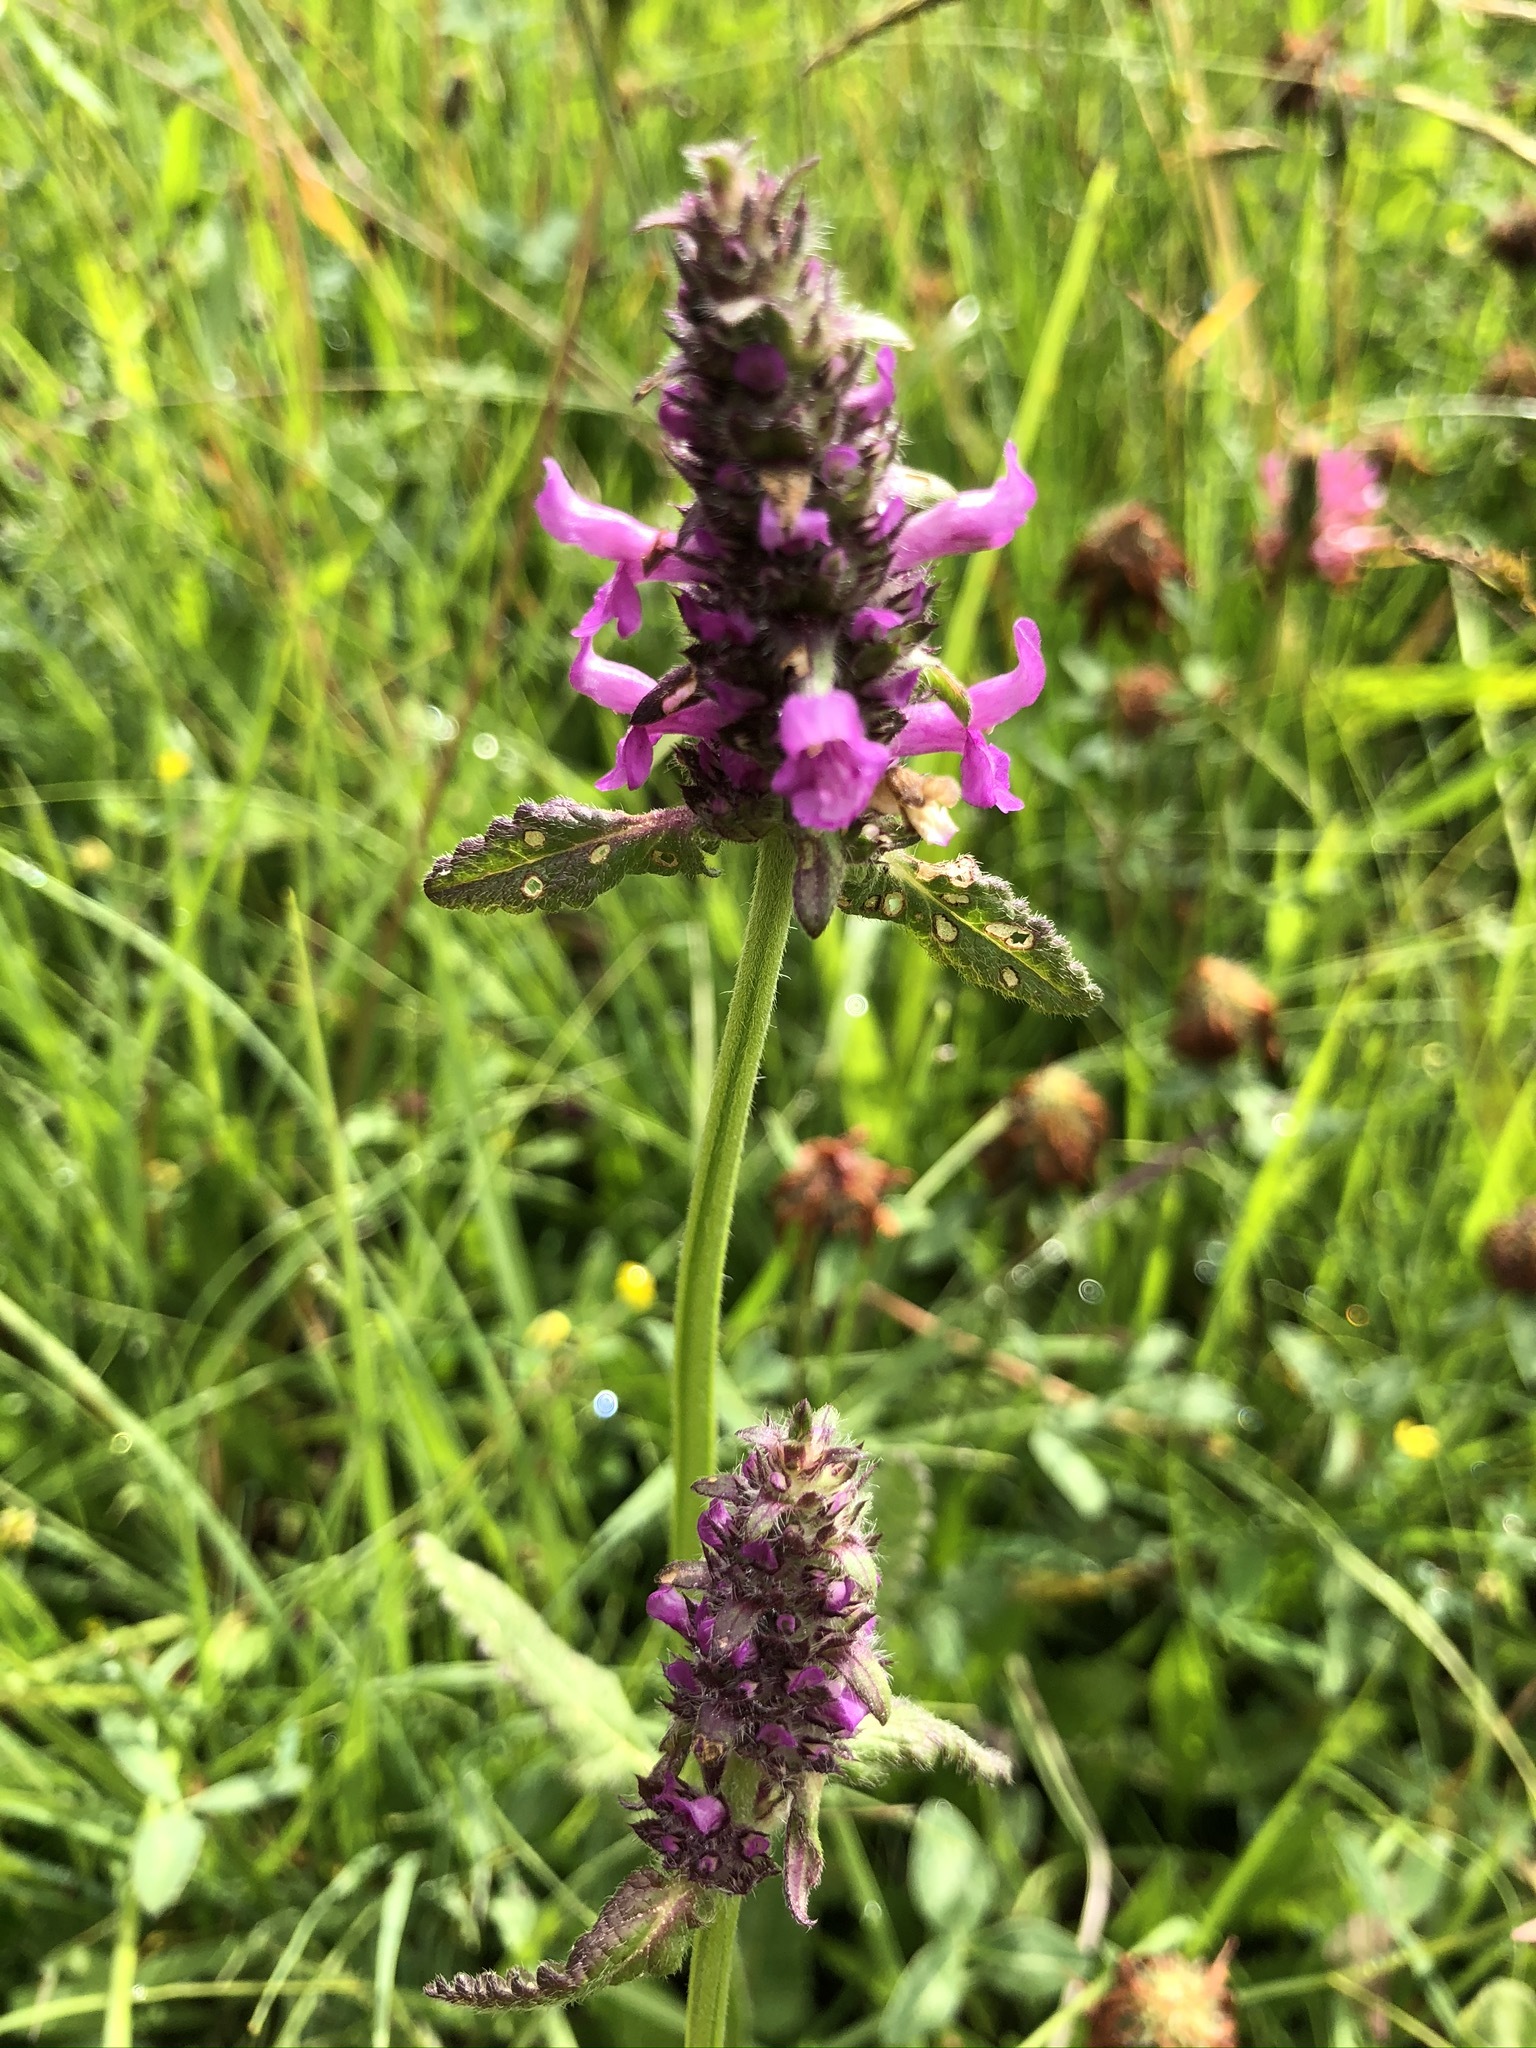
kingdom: Plantae
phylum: Tracheophyta
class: Magnoliopsida
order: Lamiales
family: Lamiaceae
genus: Betonica
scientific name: Betonica officinalis
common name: Bishop's-wort
